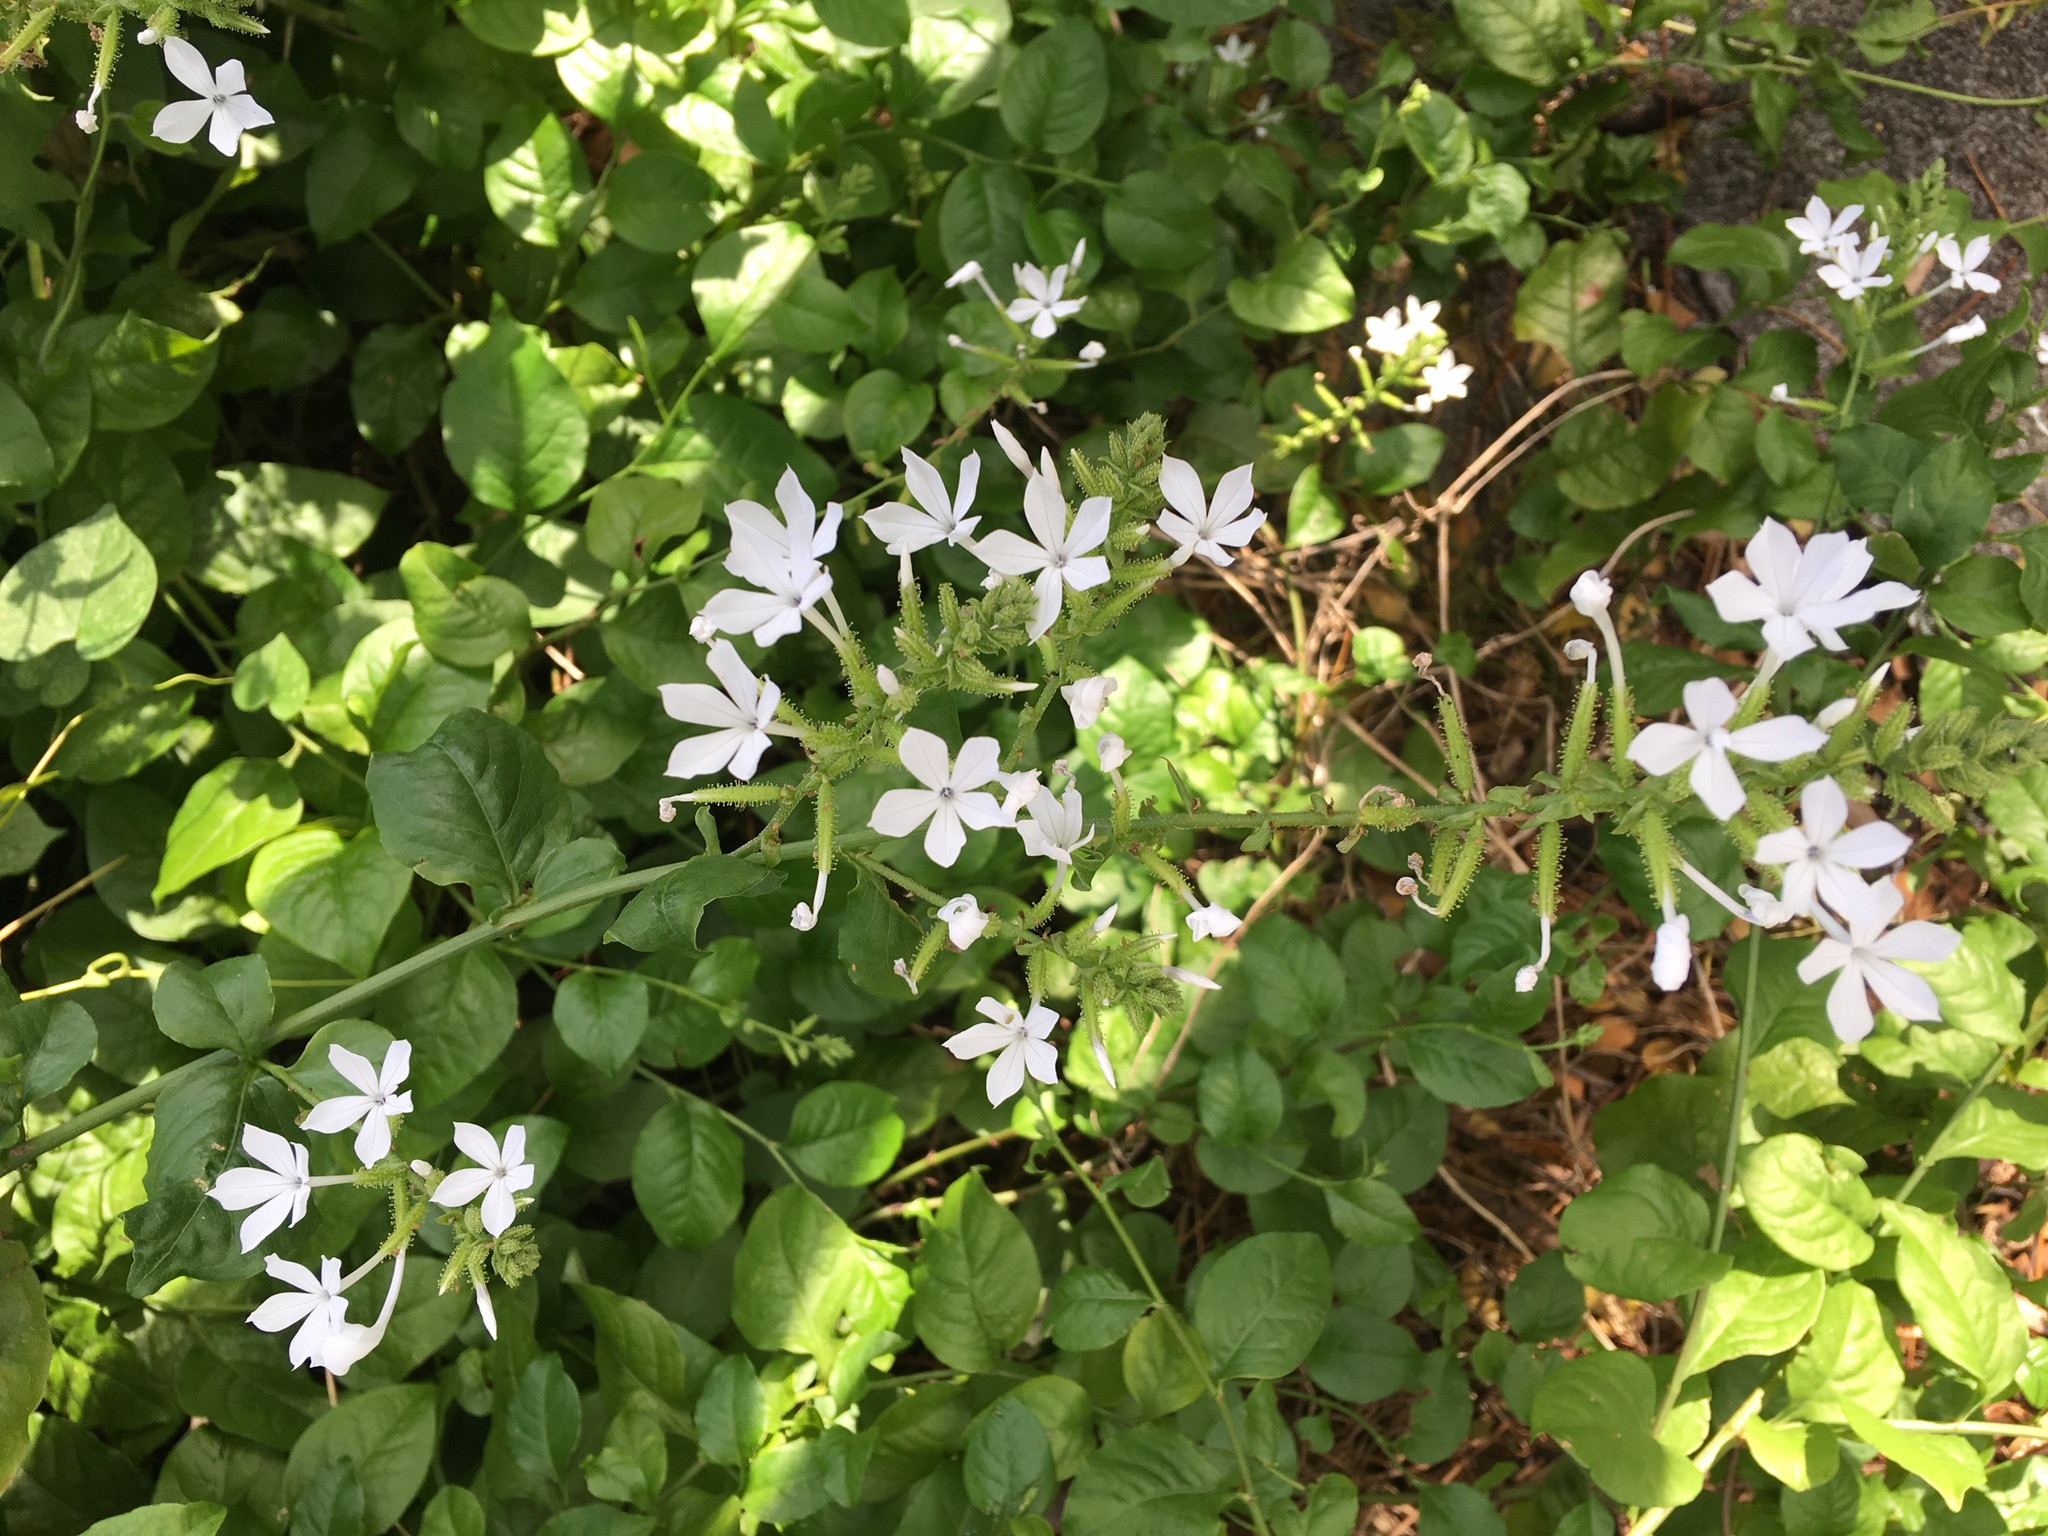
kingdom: Plantae
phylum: Tracheophyta
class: Magnoliopsida
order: Caryophyllales
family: Plumbaginaceae
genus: Plumbago
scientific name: Plumbago zeylanica
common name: Doctorbush
